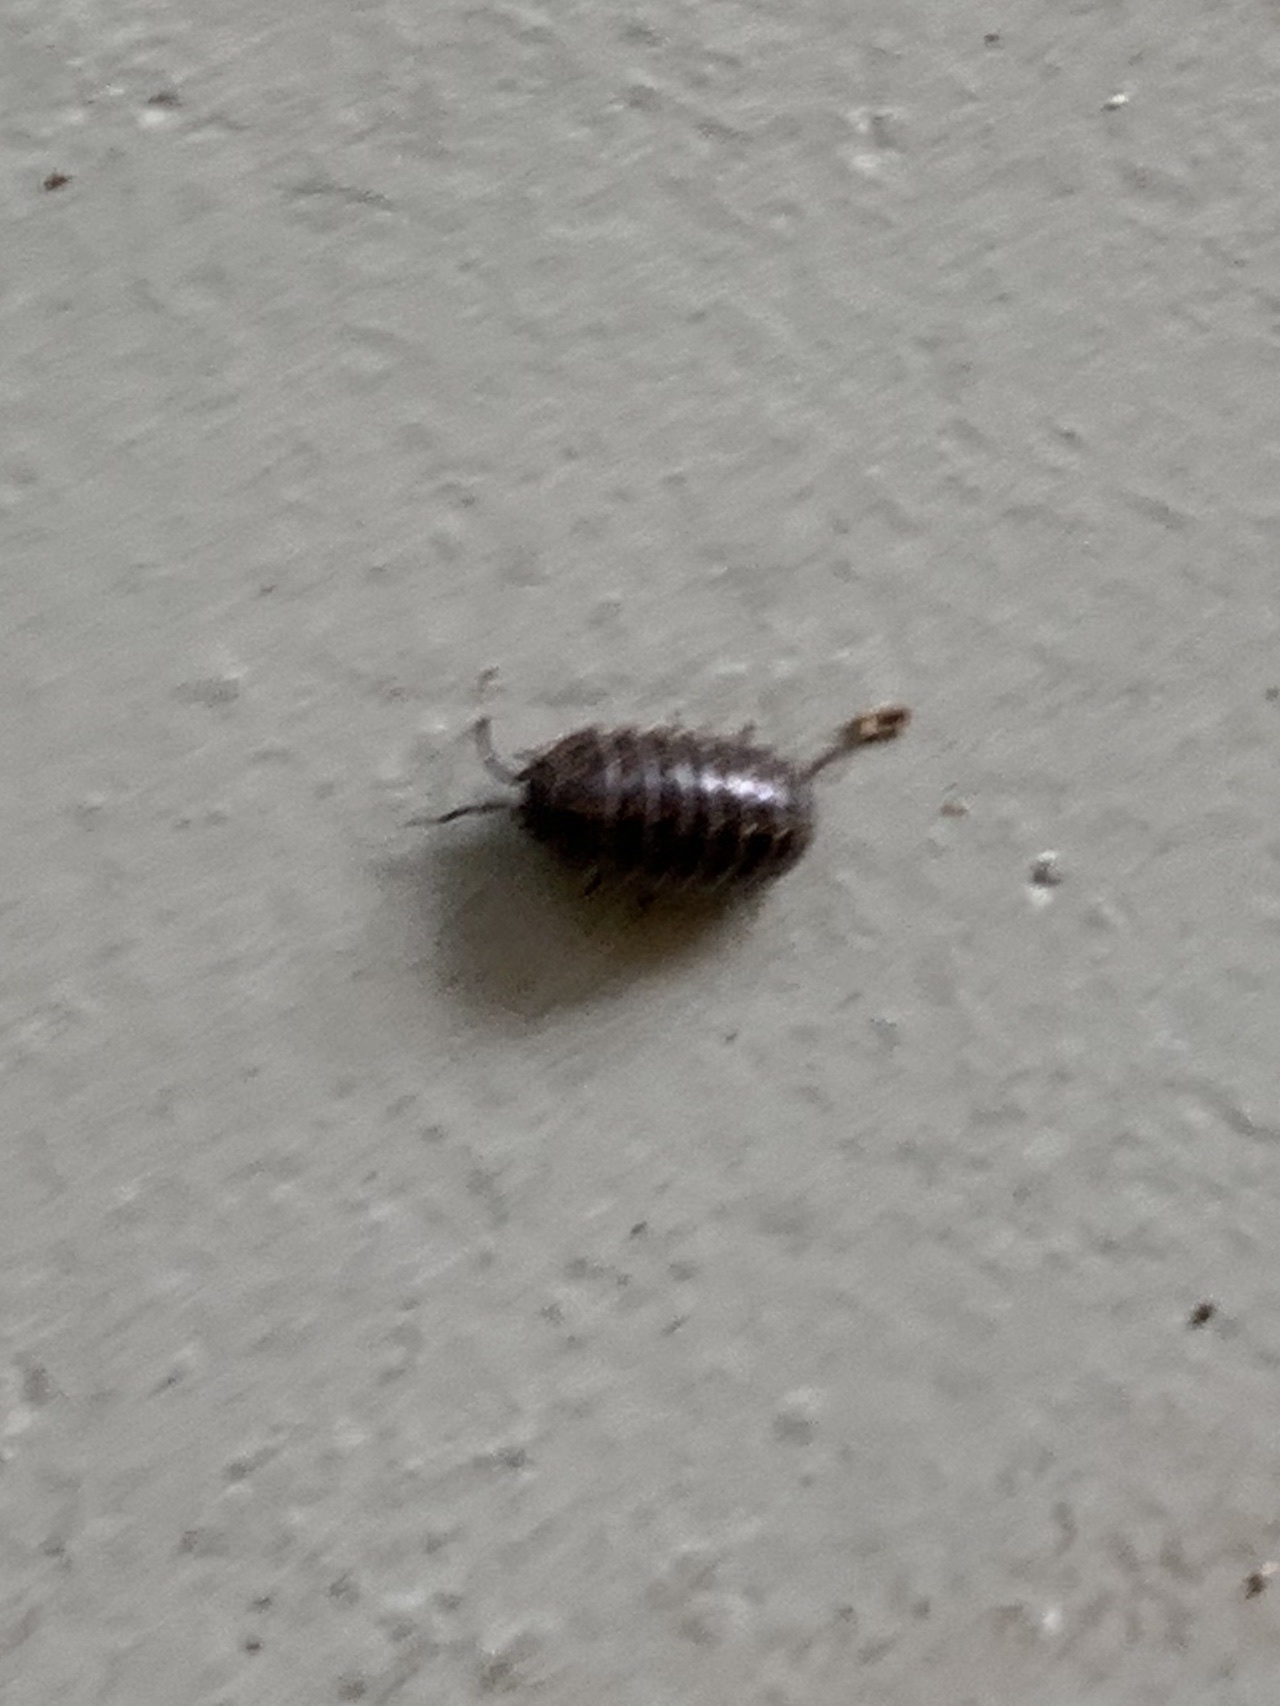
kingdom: Animalia
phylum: Arthropoda
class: Malacostraca
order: Isopoda
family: Armadillidiidae
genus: Armadillidium
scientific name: Armadillidium vulgare
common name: Common pill woodlouse
